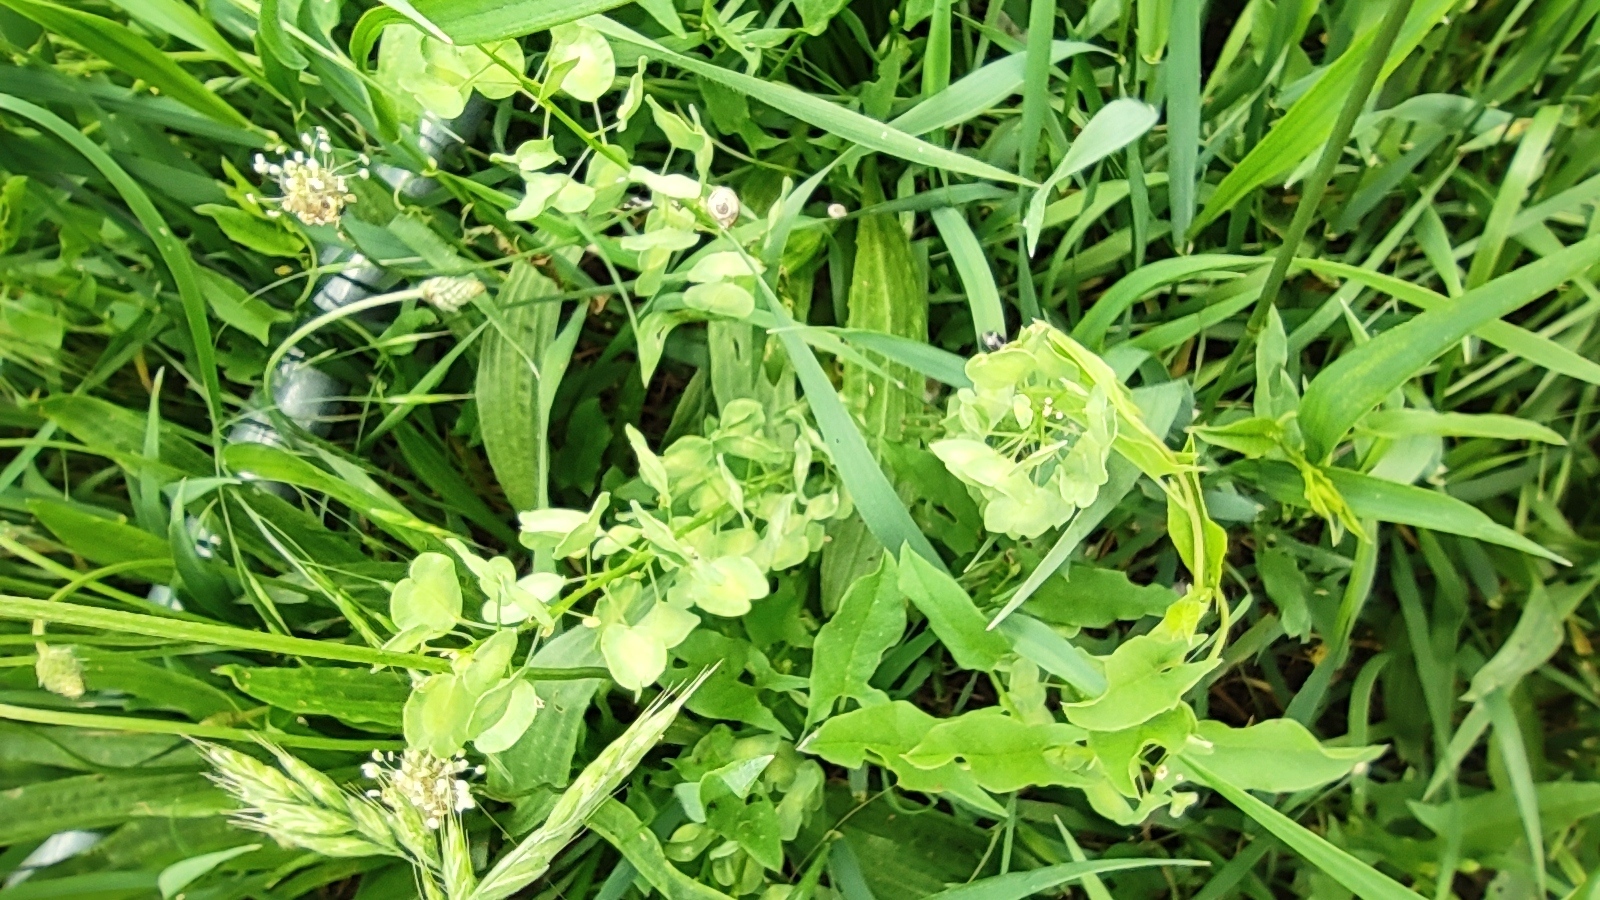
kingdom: Plantae
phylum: Tracheophyta
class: Magnoliopsida
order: Brassicales
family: Brassicaceae
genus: Thlaspi
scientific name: Thlaspi arvense
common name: Field pennycress
